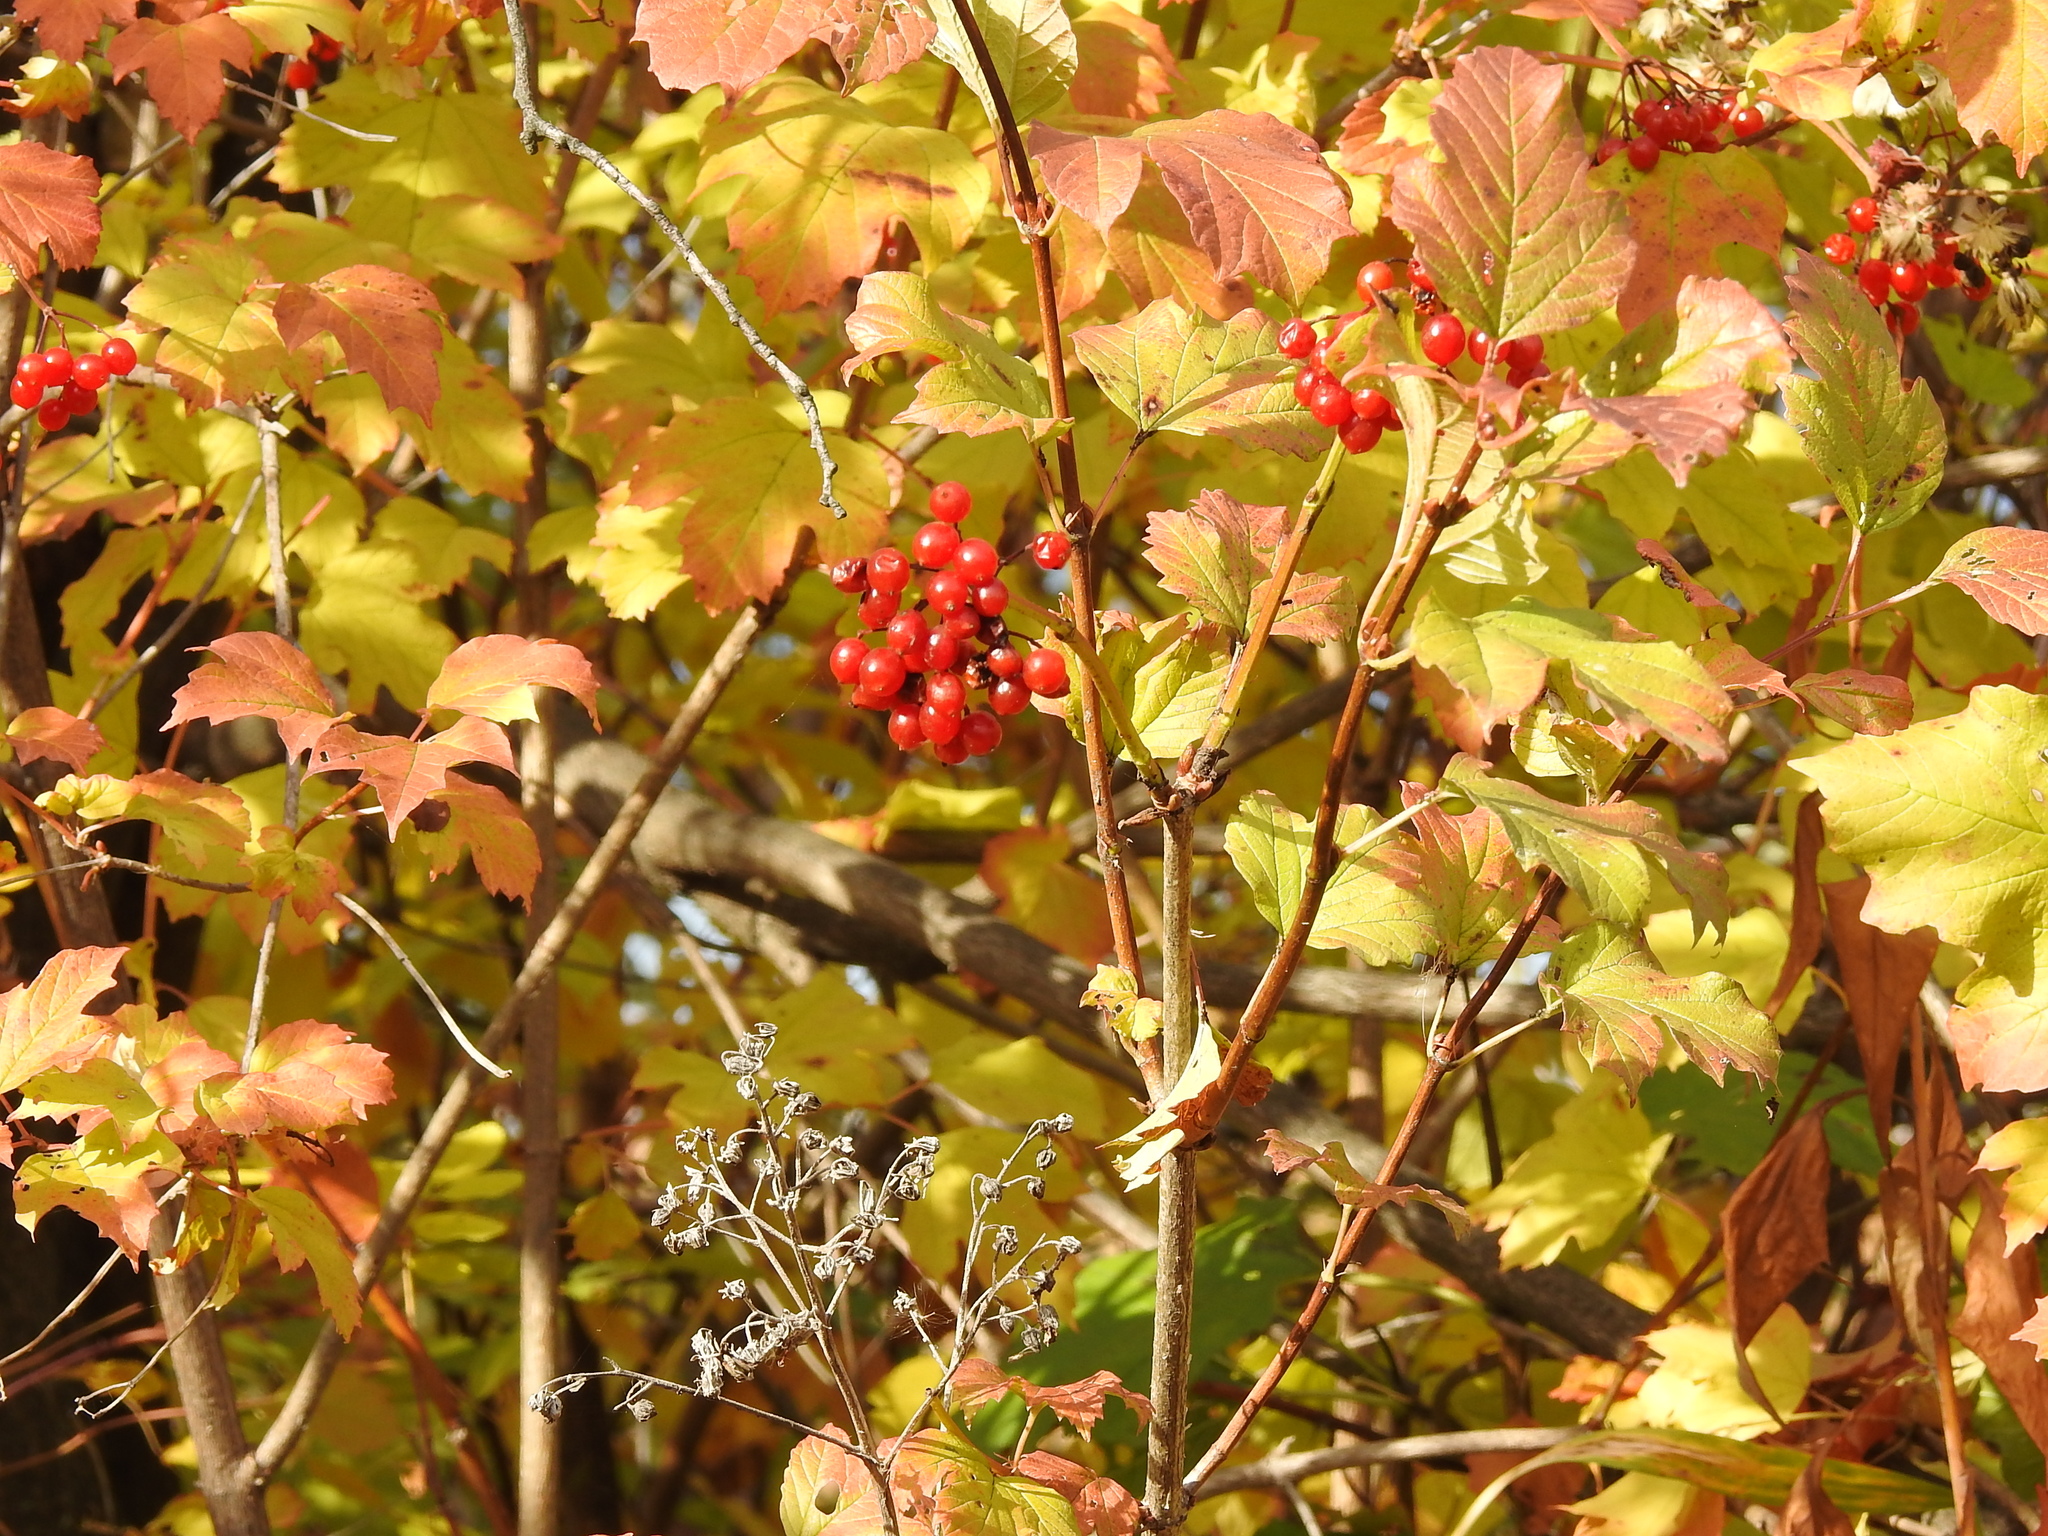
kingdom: Plantae
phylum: Tracheophyta
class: Magnoliopsida
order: Dipsacales
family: Viburnaceae
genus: Viburnum
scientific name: Viburnum opulus
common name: Guelder-rose
